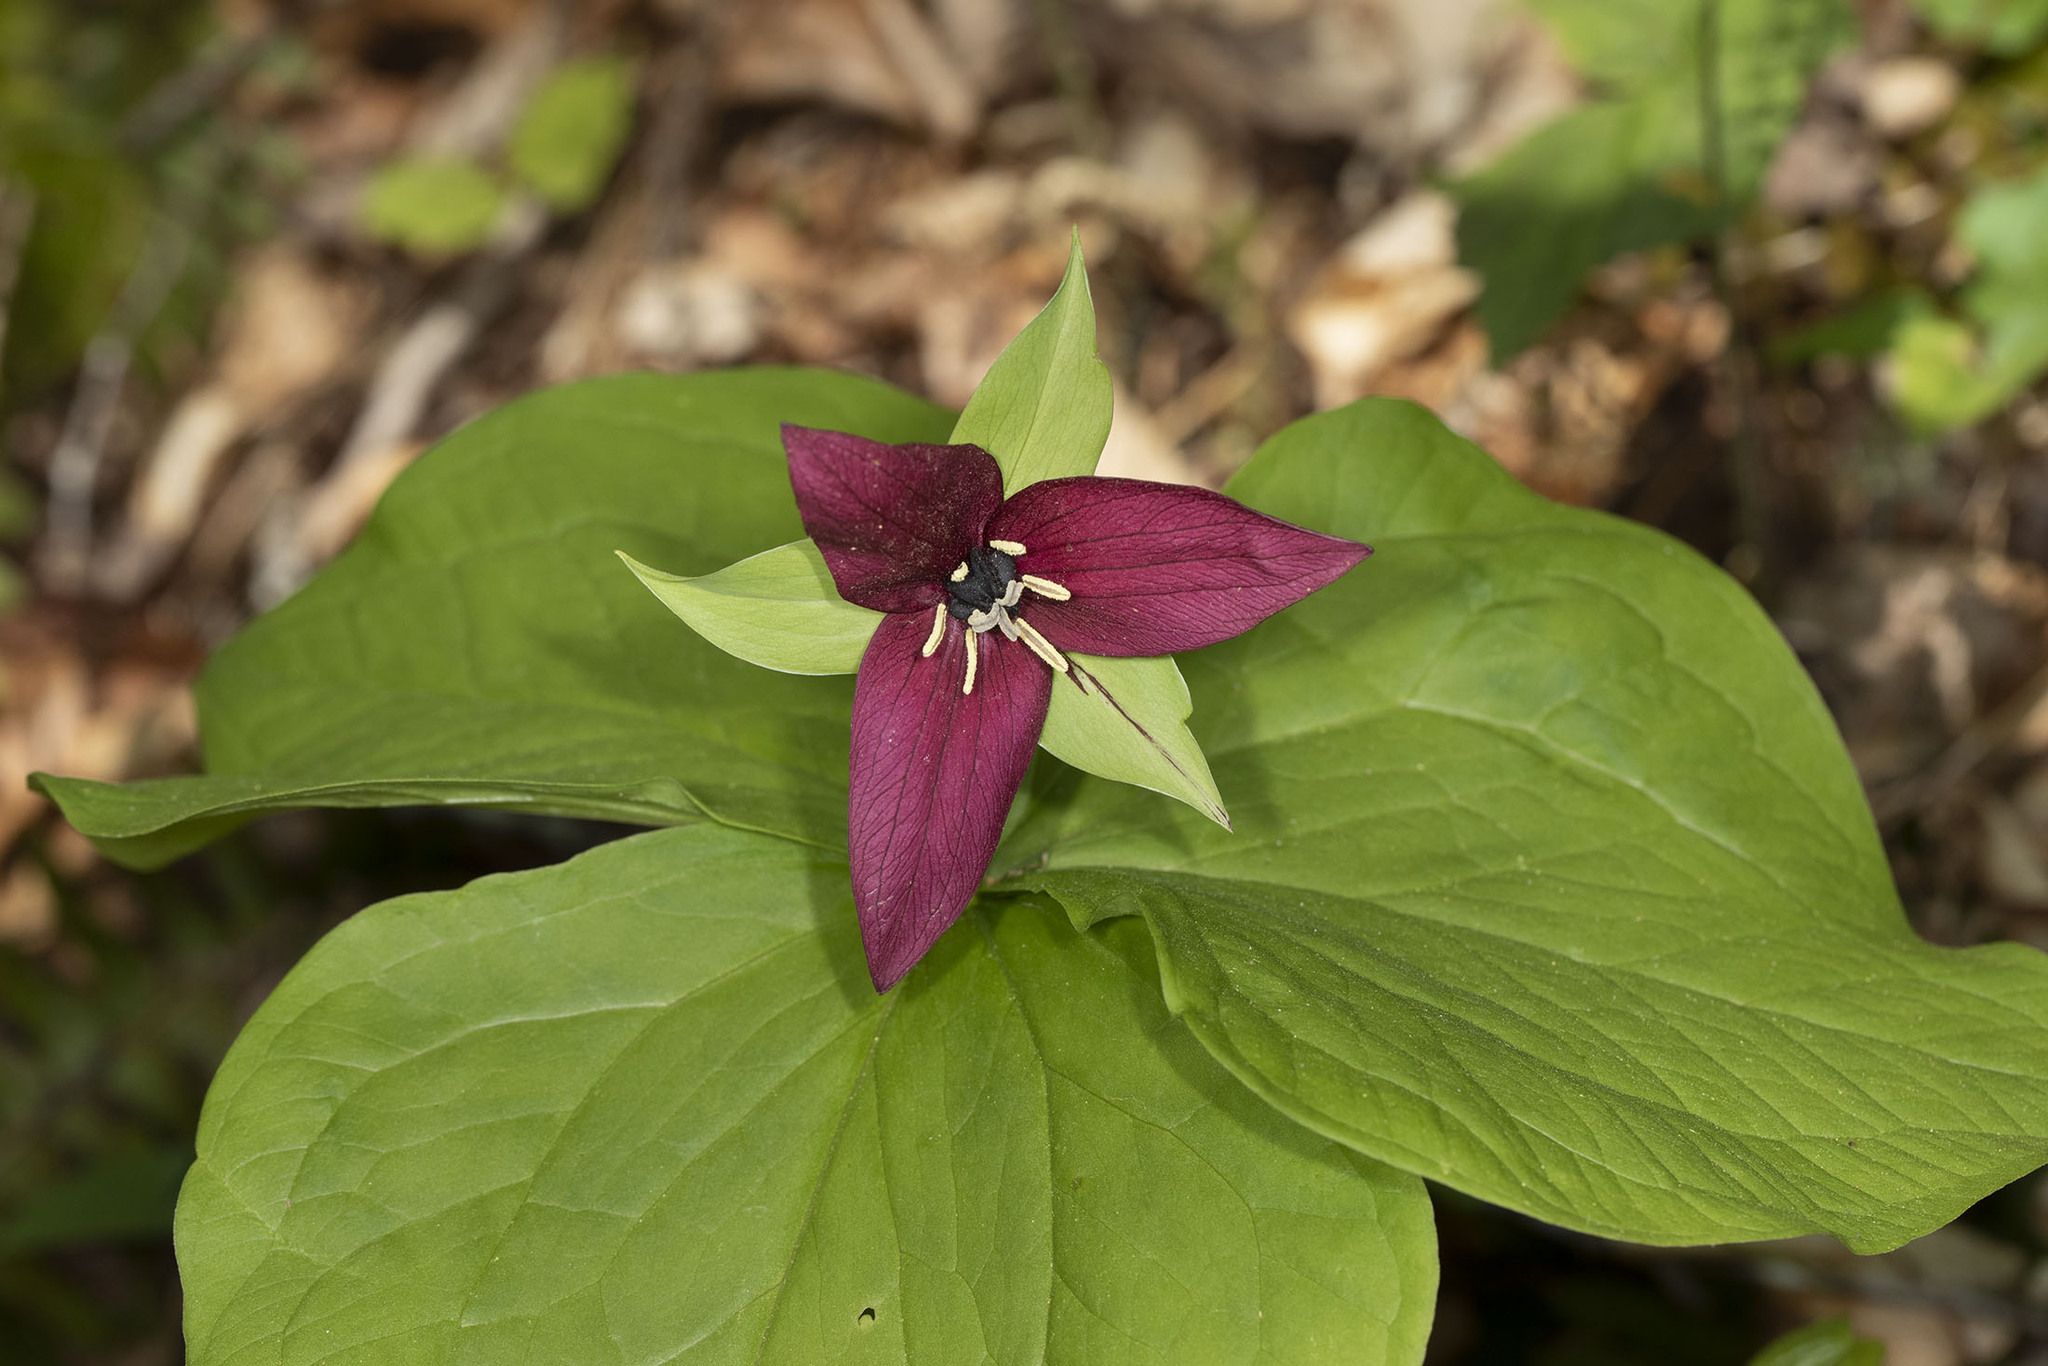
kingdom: Plantae
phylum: Tracheophyta
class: Liliopsida
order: Liliales
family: Melanthiaceae
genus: Trillium
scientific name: Trillium erectum
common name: Purple trillium
